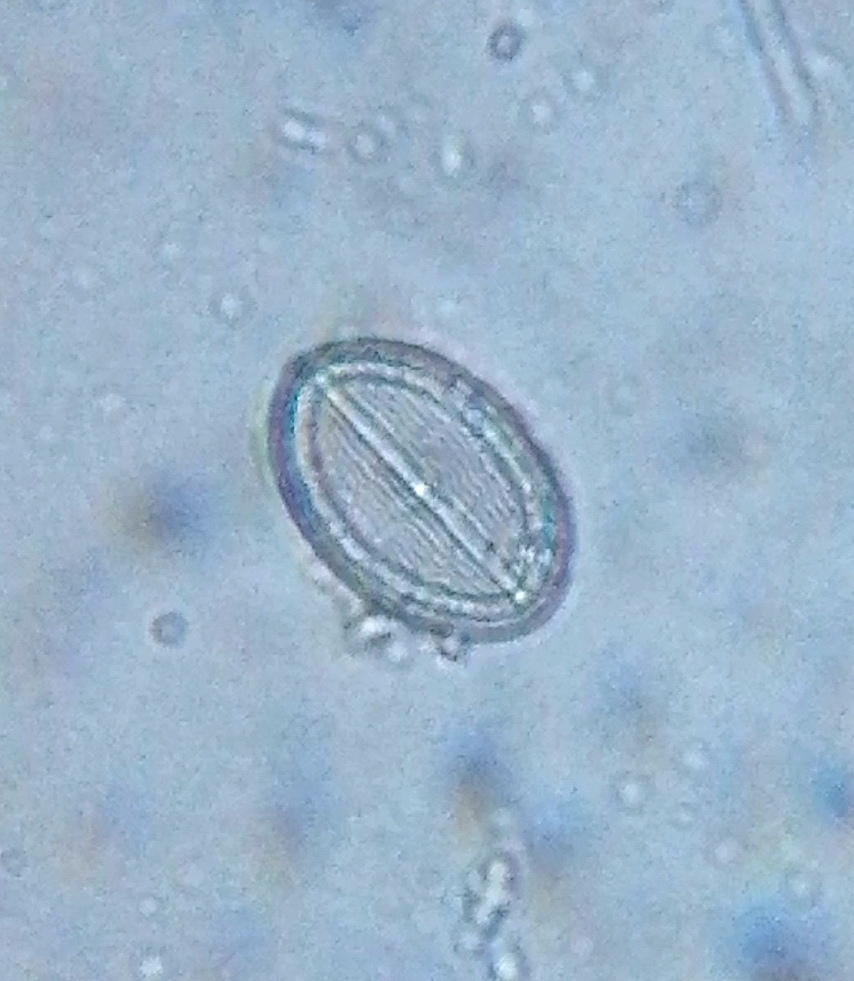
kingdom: Chromista
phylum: Ochrophyta
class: Bacillariophyceae
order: Achnanthales
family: Cocconeidaceae
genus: Cocconeis
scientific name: Cocconeis placentula
